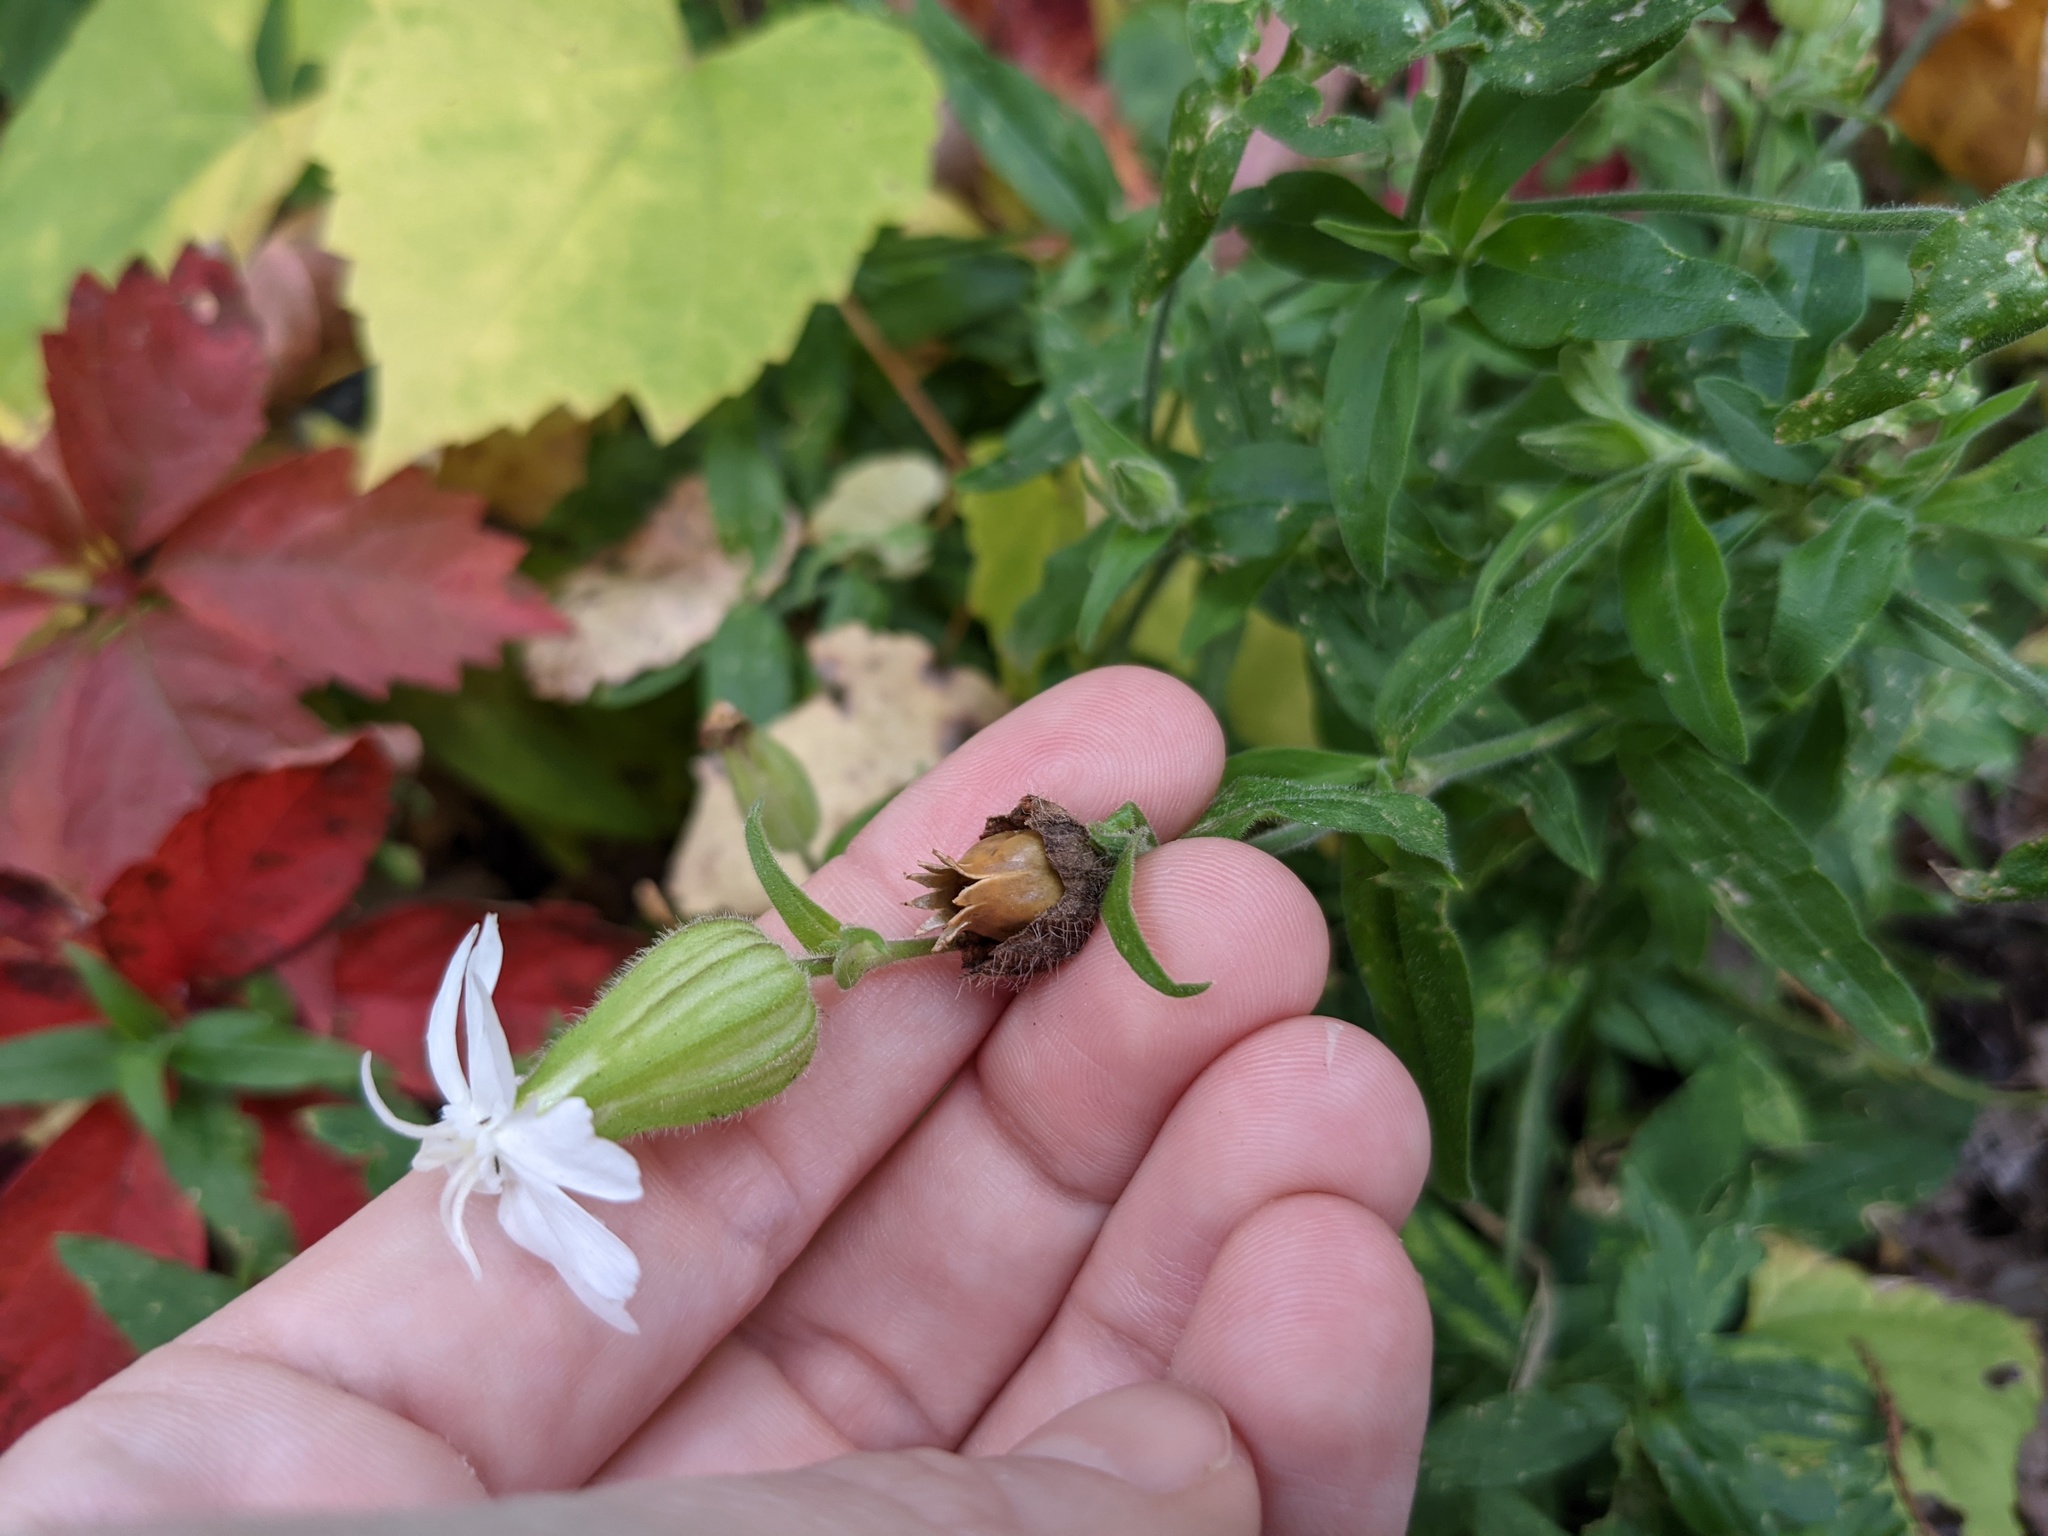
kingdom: Plantae
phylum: Tracheophyta
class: Magnoliopsida
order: Caryophyllales
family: Caryophyllaceae
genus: Silene
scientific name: Silene latifolia
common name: White campion
